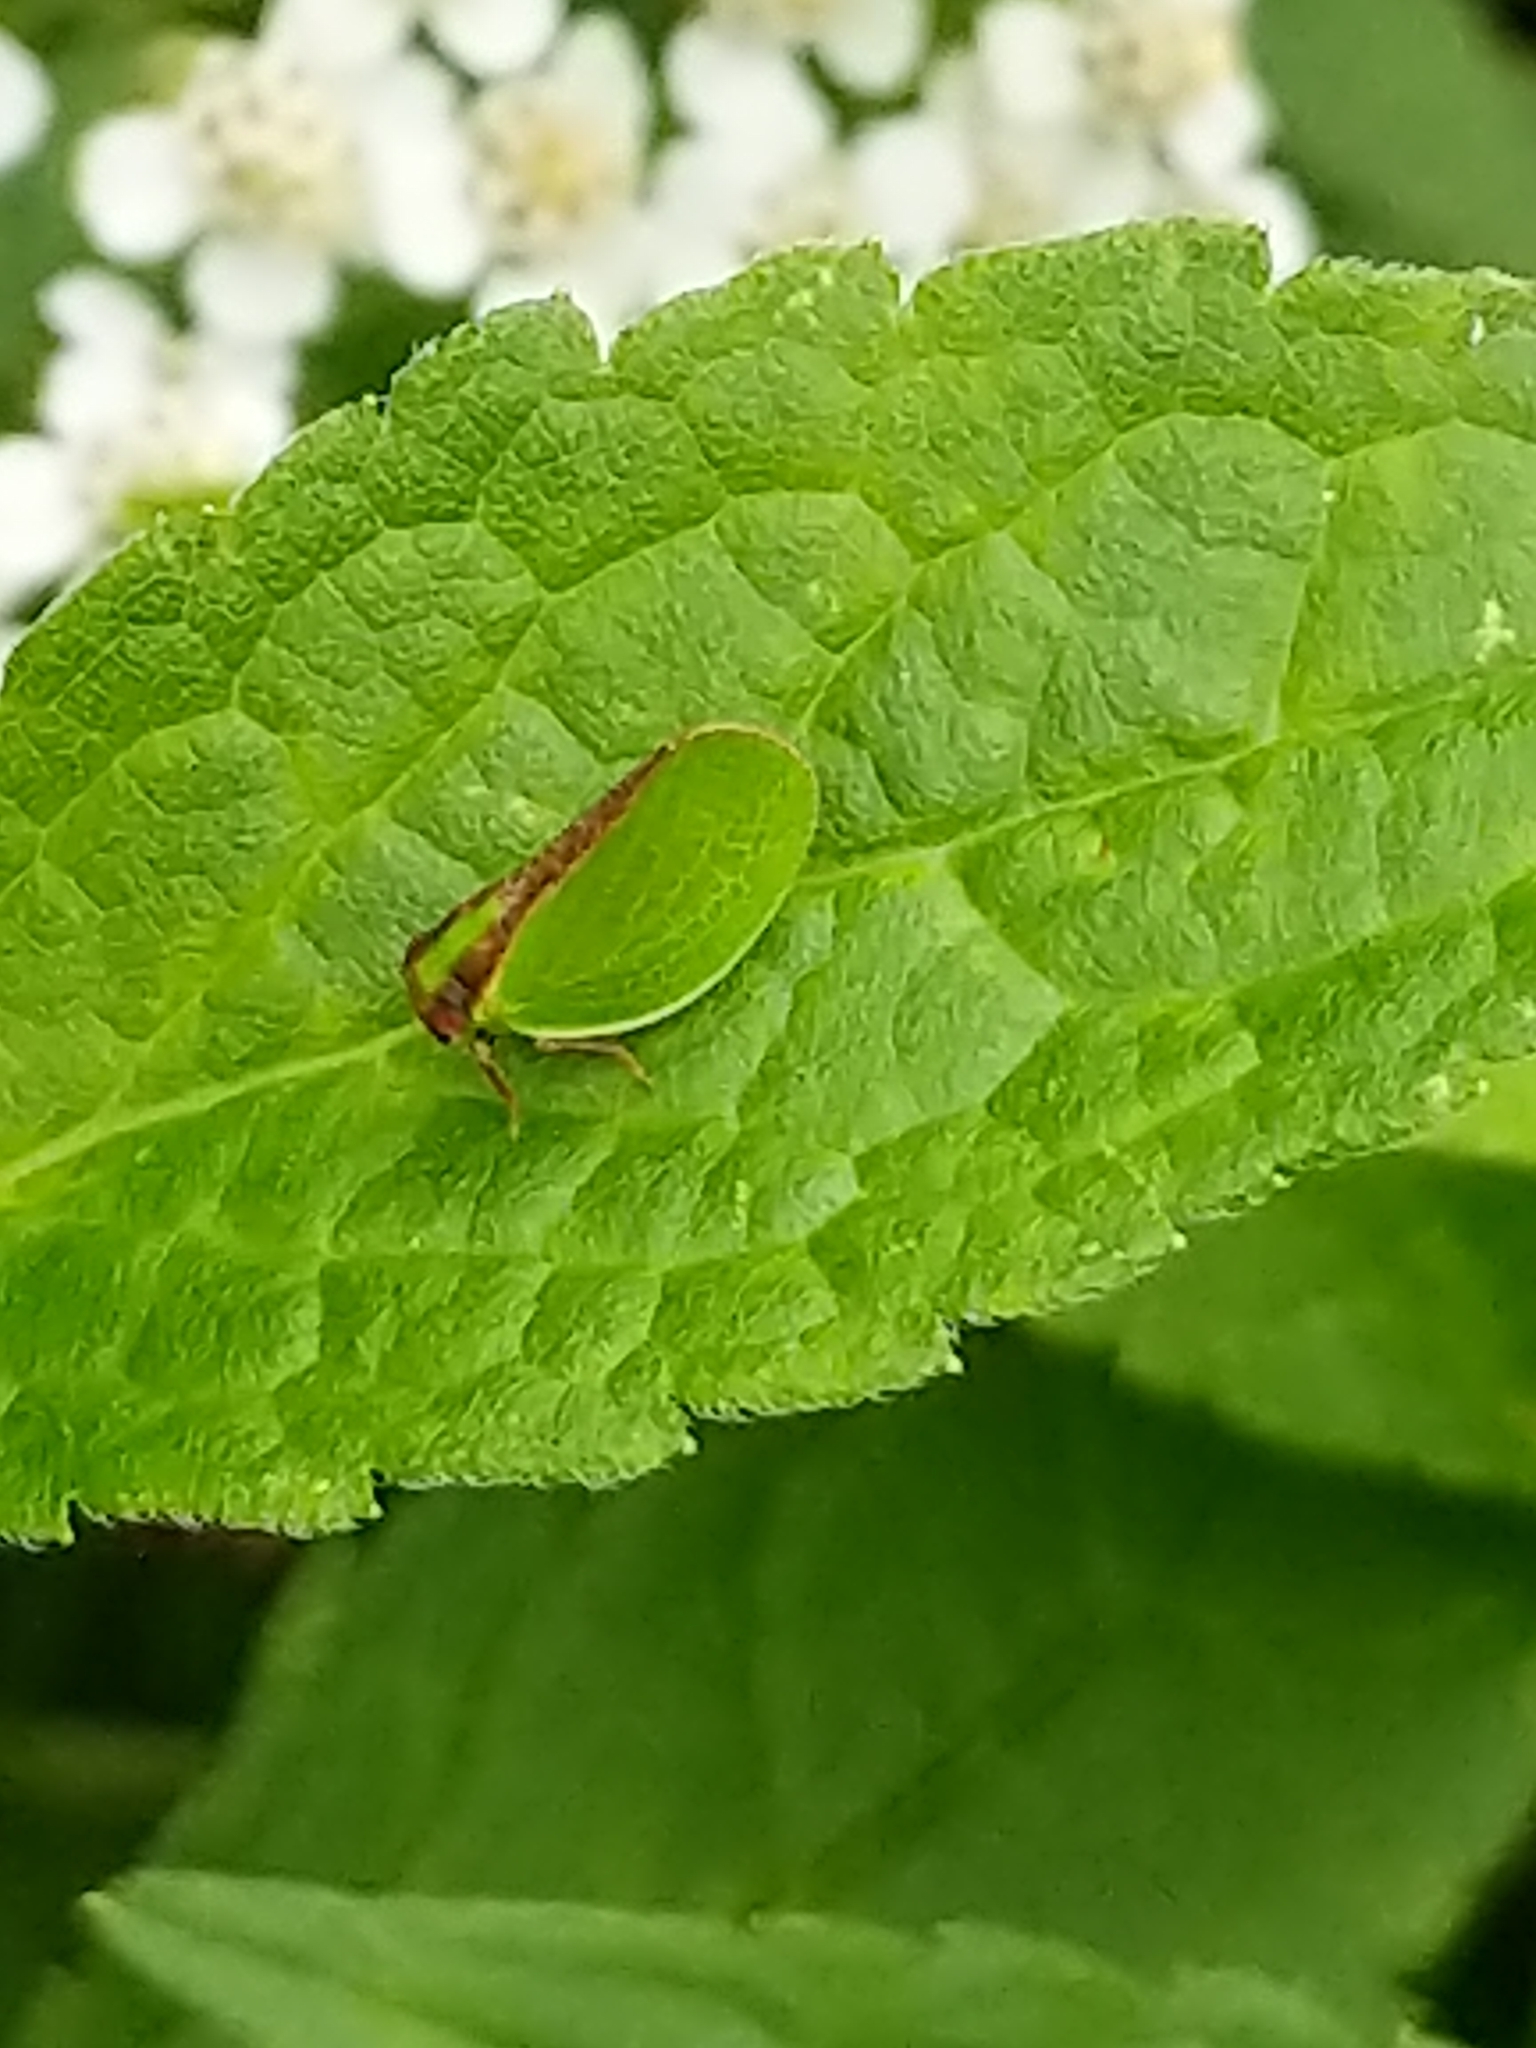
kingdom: Animalia
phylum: Arthropoda
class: Insecta
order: Hemiptera
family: Acanaloniidae
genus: Acanalonia
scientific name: Acanalonia bivittata
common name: Two-striped planthopper
